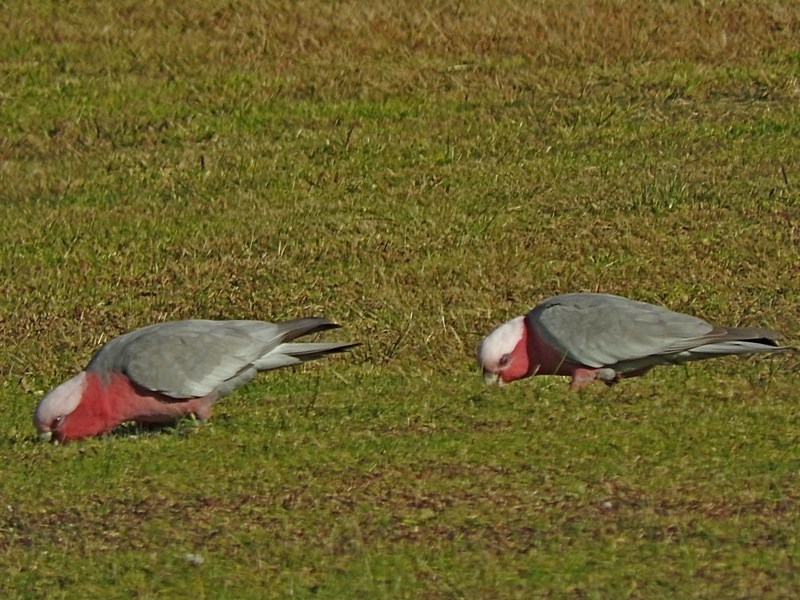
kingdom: Animalia
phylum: Chordata
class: Aves
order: Psittaciformes
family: Psittacidae
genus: Eolophus
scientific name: Eolophus roseicapilla
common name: Galah
